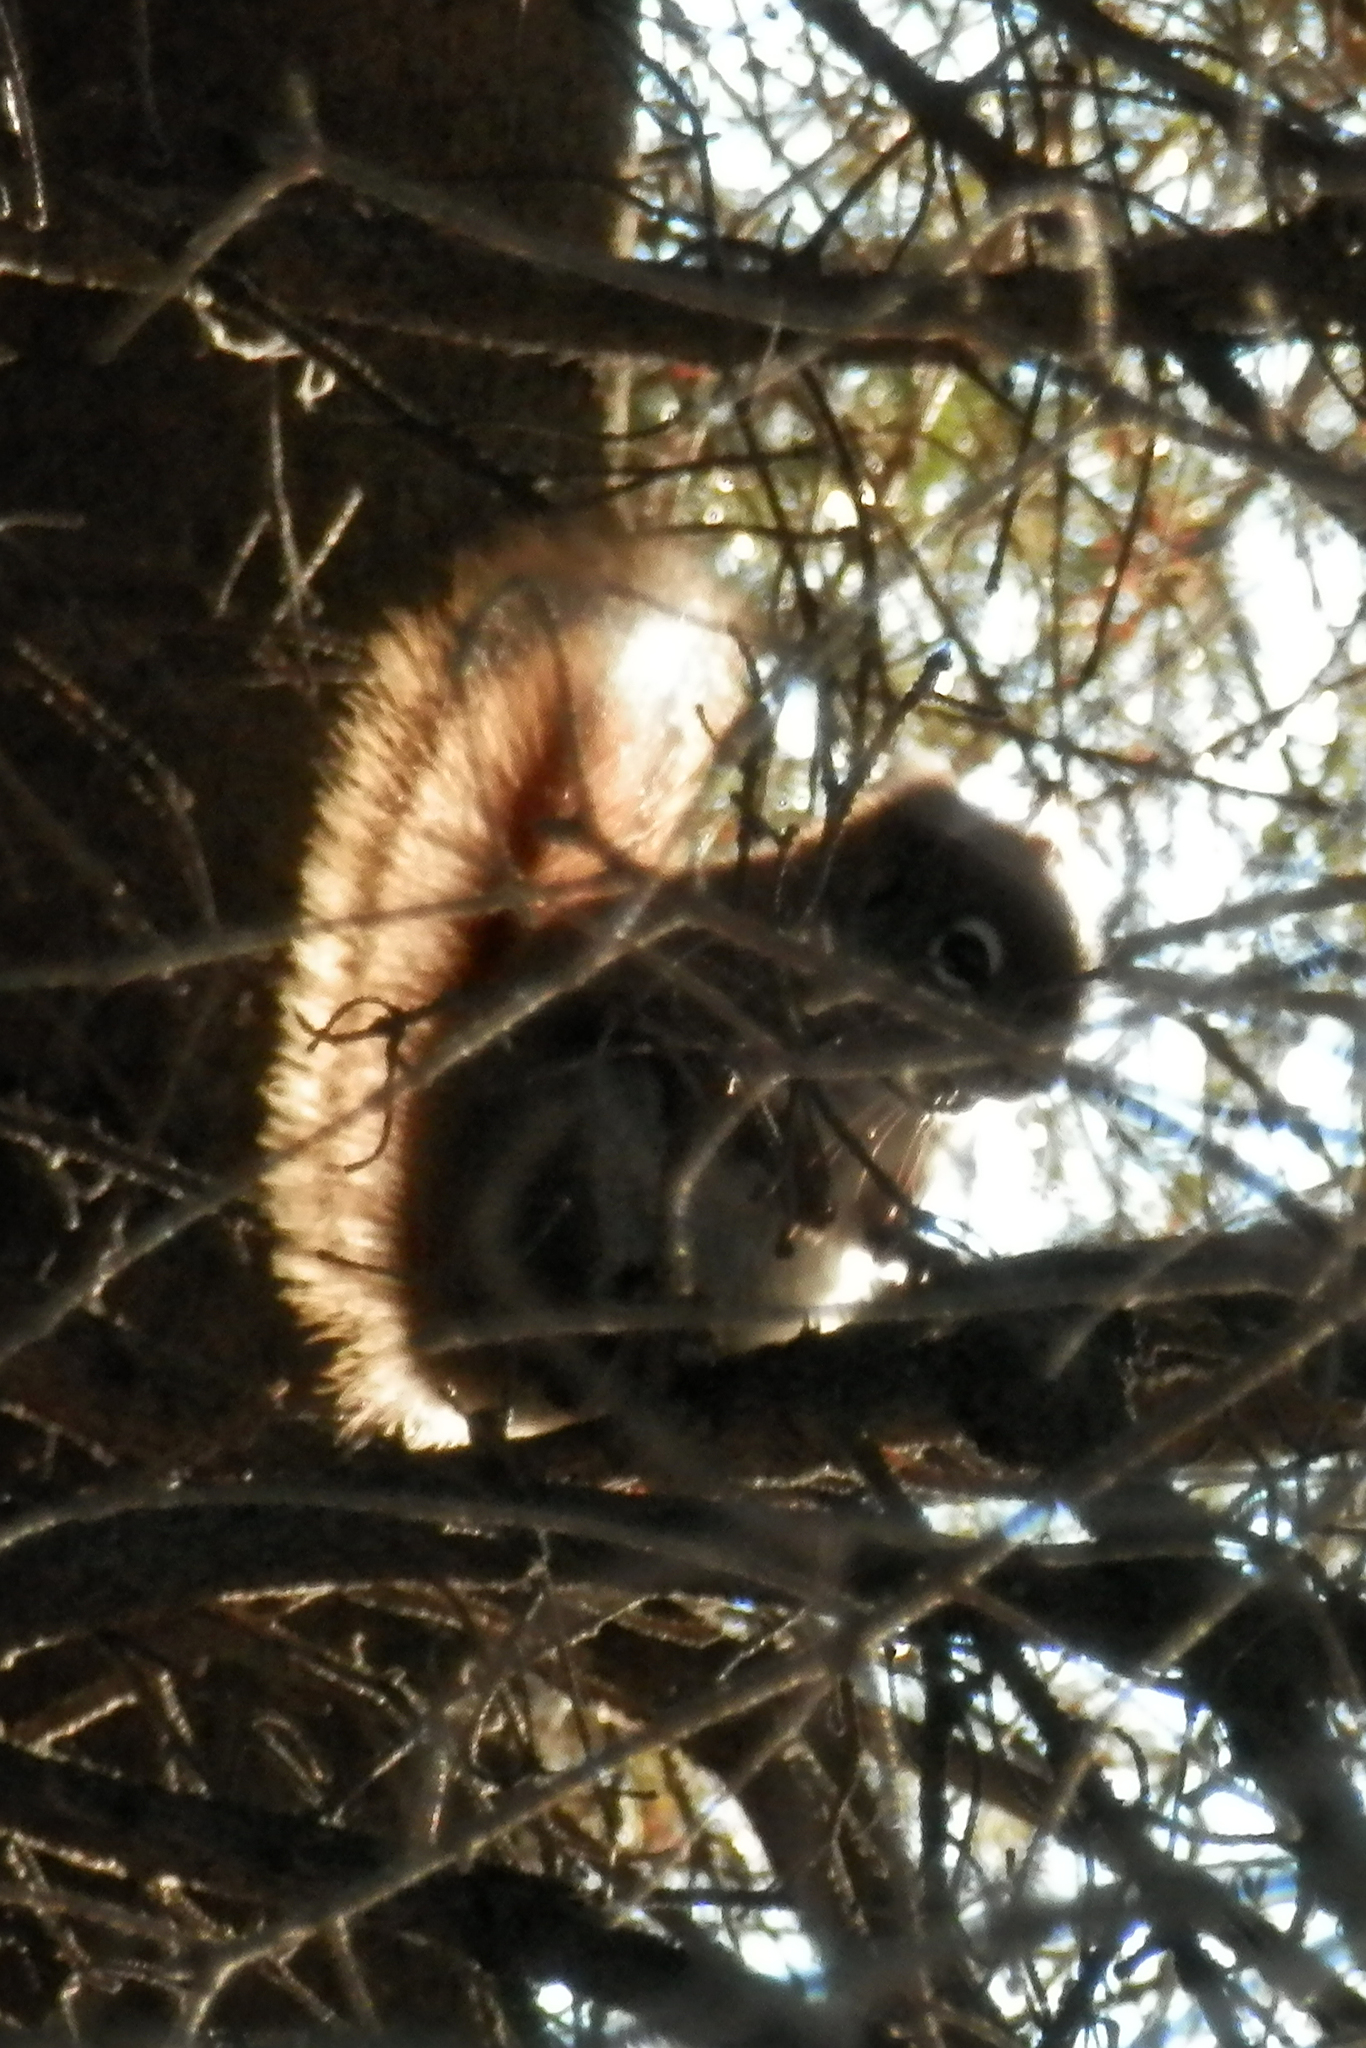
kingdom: Animalia
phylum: Chordata
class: Mammalia
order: Rodentia
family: Sciuridae
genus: Tamiasciurus
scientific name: Tamiasciurus hudsonicus
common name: Red squirrel
